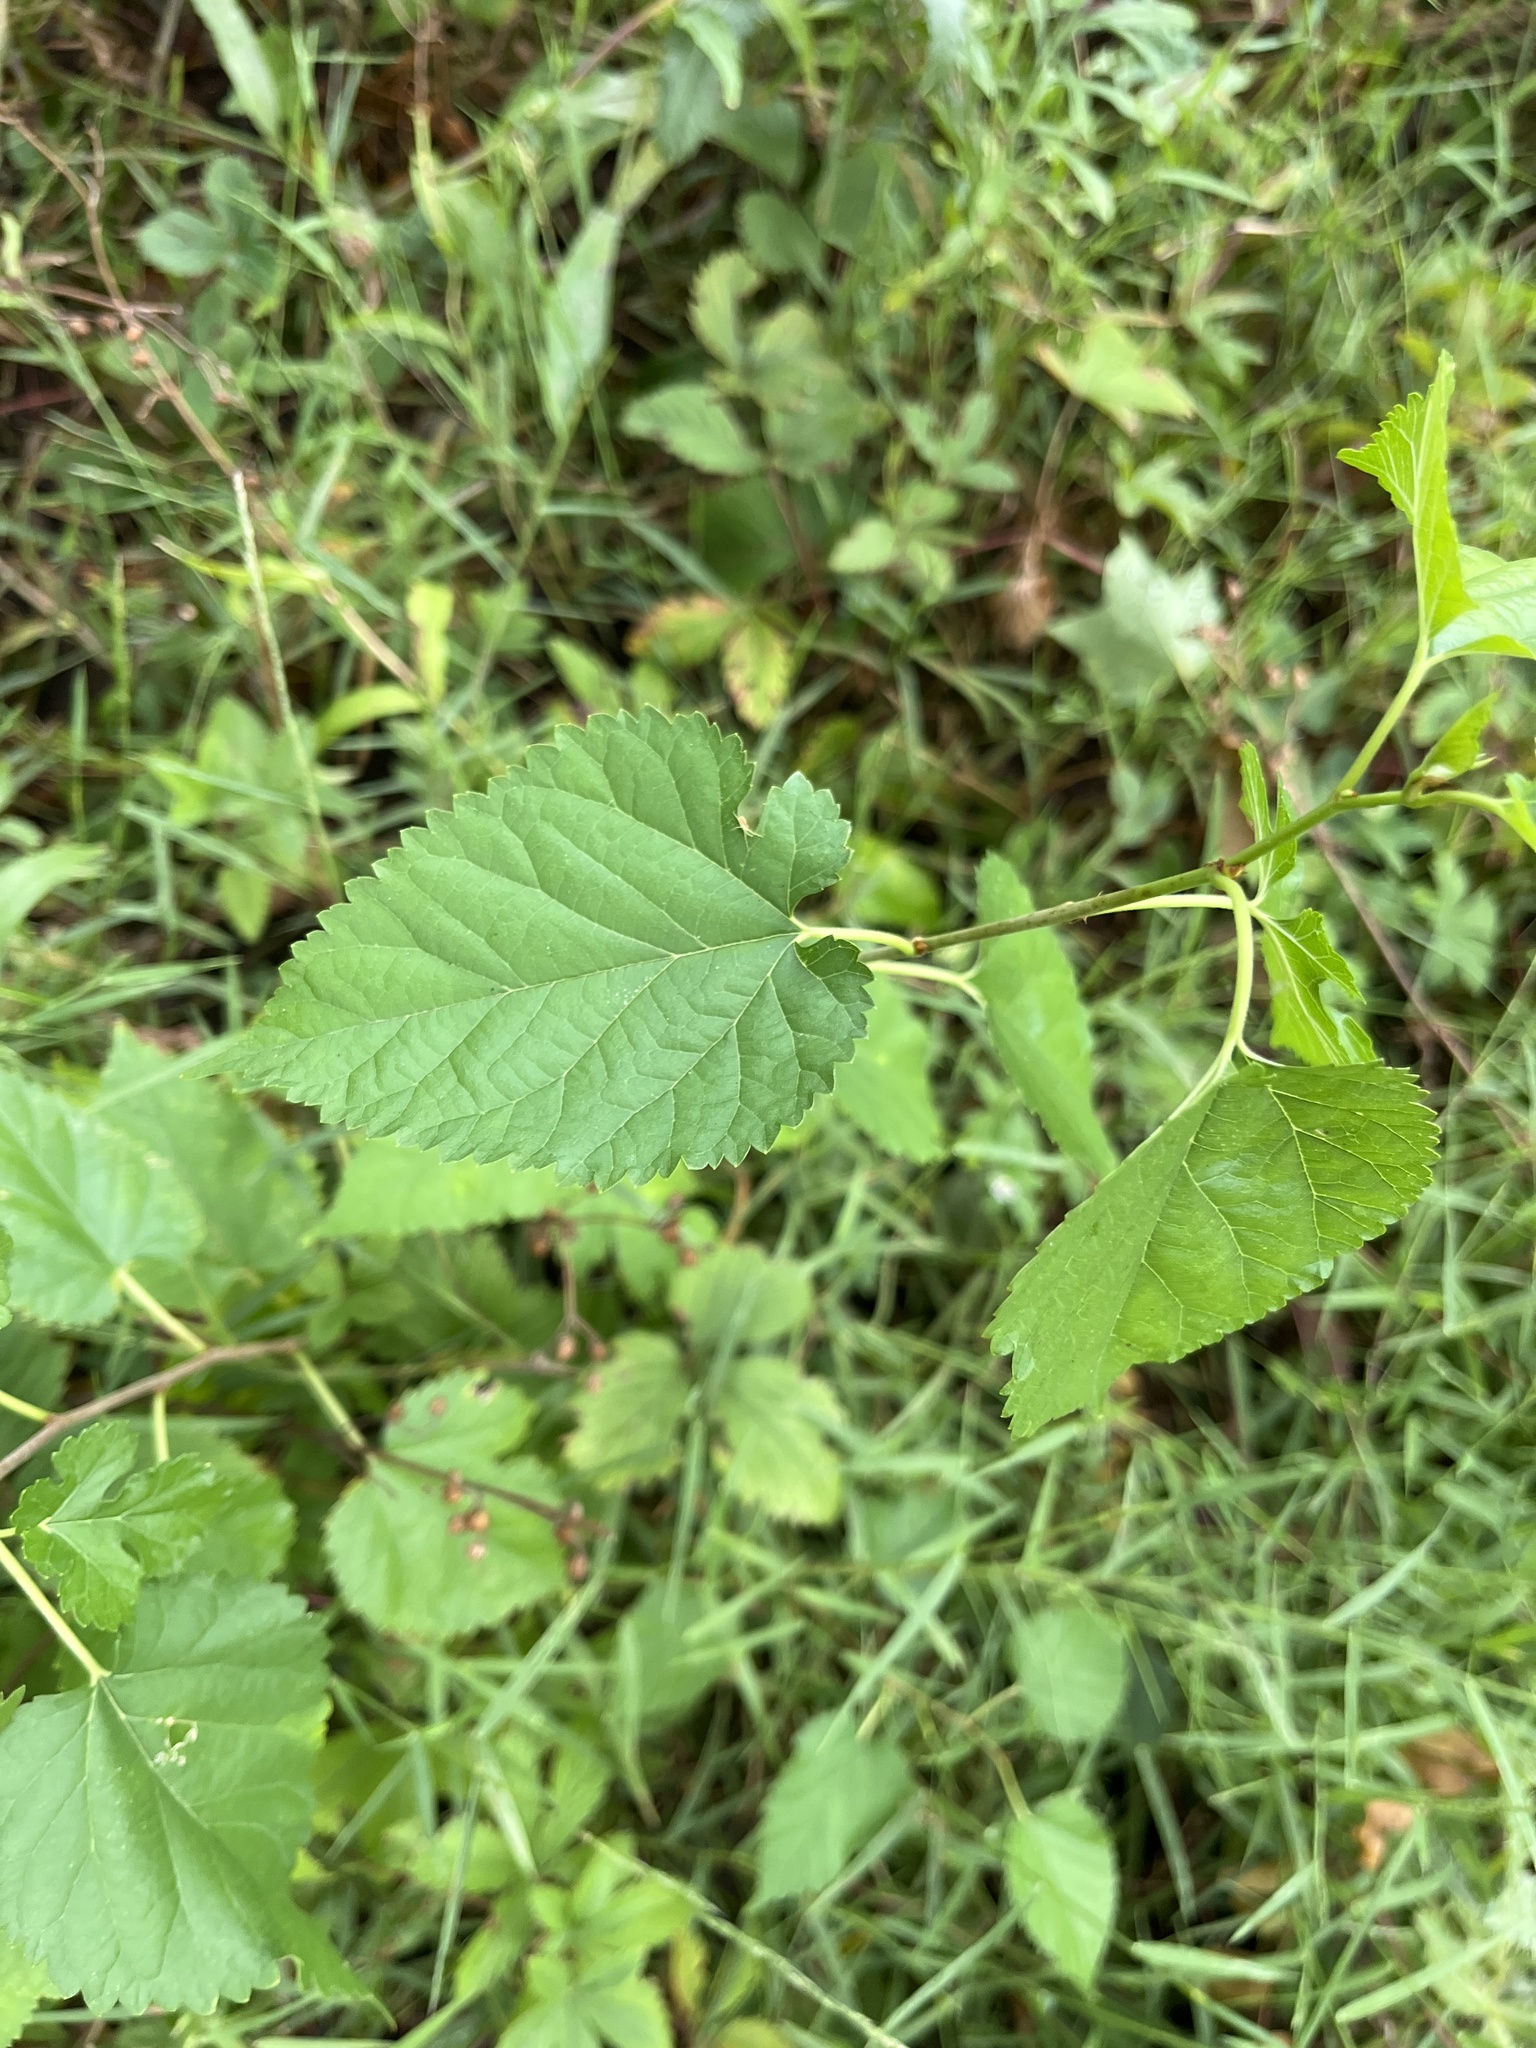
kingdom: Plantae
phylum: Tracheophyta
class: Magnoliopsida
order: Rosales
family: Moraceae
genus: Morus
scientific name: Morus alba
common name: White mulberry
